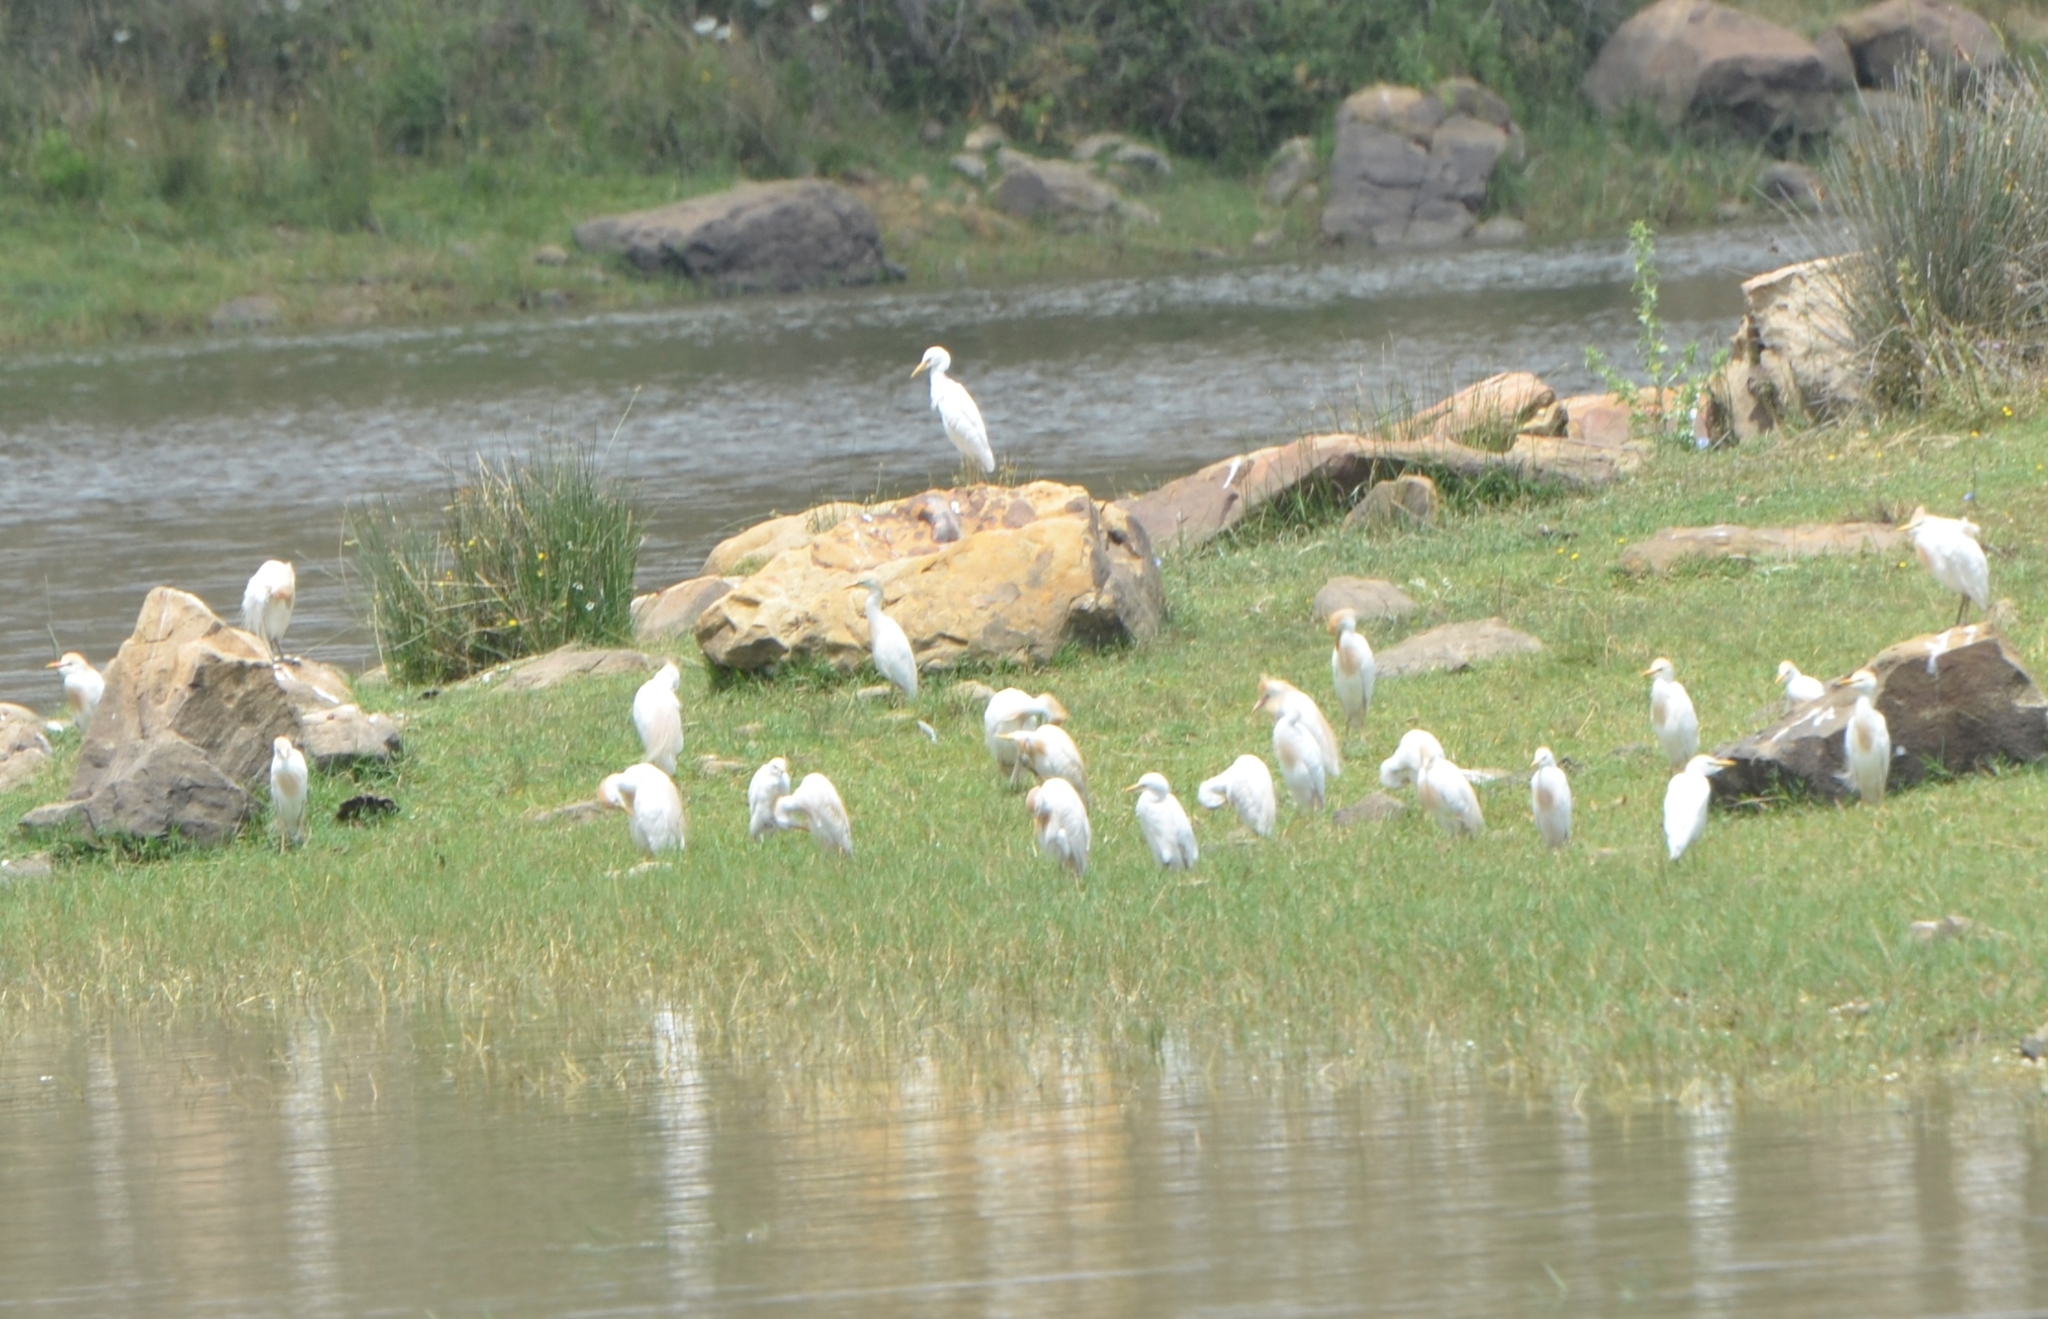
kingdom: Animalia
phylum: Chordata
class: Aves
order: Pelecaniformes
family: Ardeidae
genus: Bubulcus
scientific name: Bubulcus ibis
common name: Cattle egret
